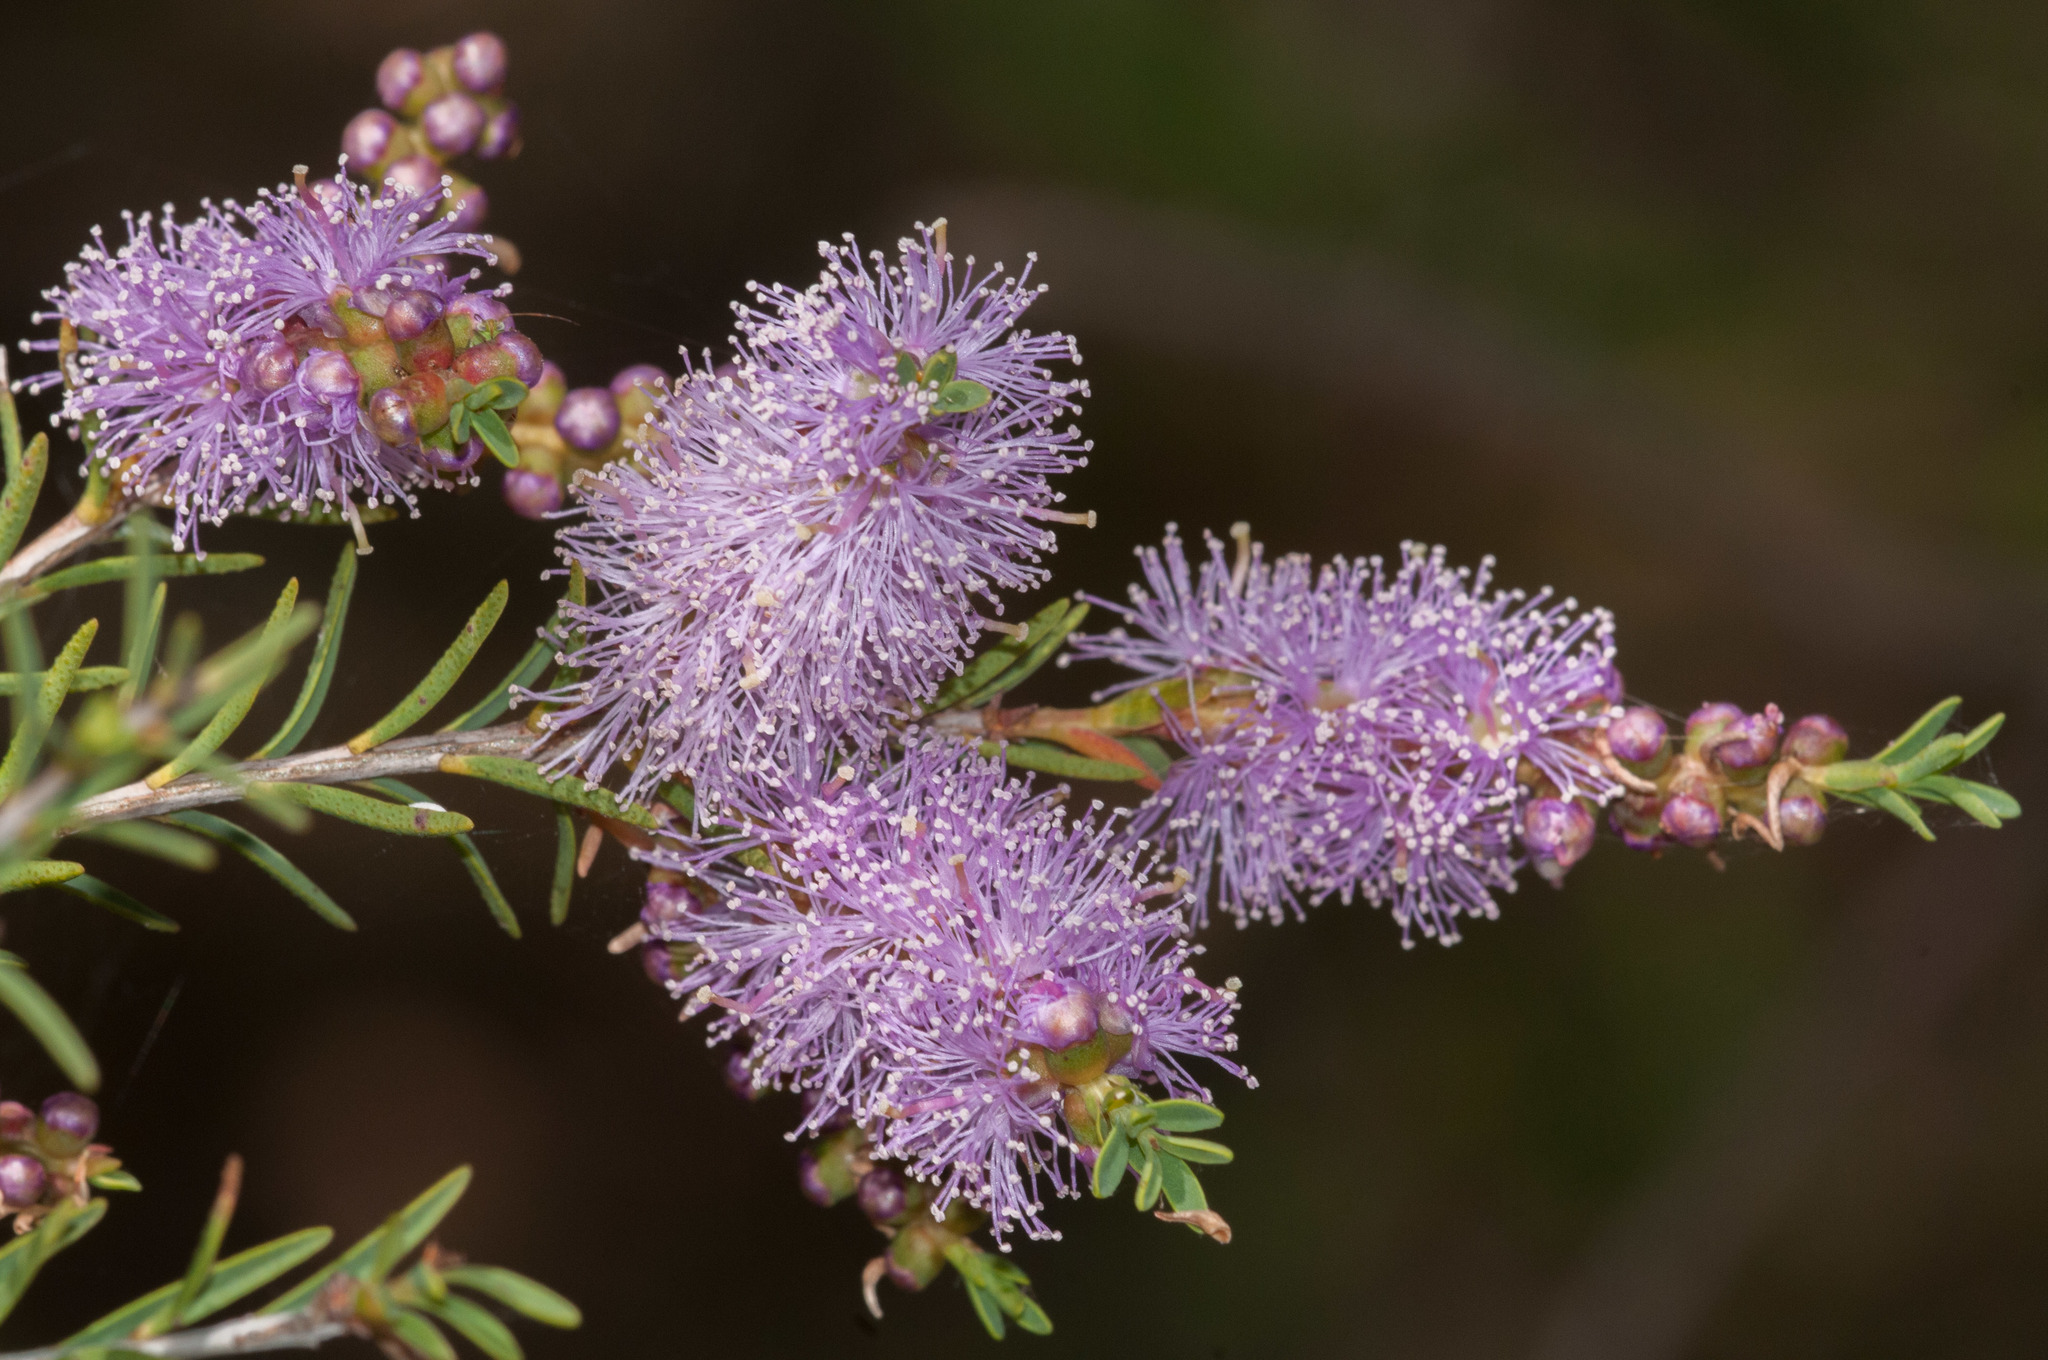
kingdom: Plantae
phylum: Tracheophyta
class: Magnoliopsida
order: Myrtales
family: Myrtaceae
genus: Melaleuca
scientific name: Melaleuca decussata
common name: Cross-leaf honey myrtle
